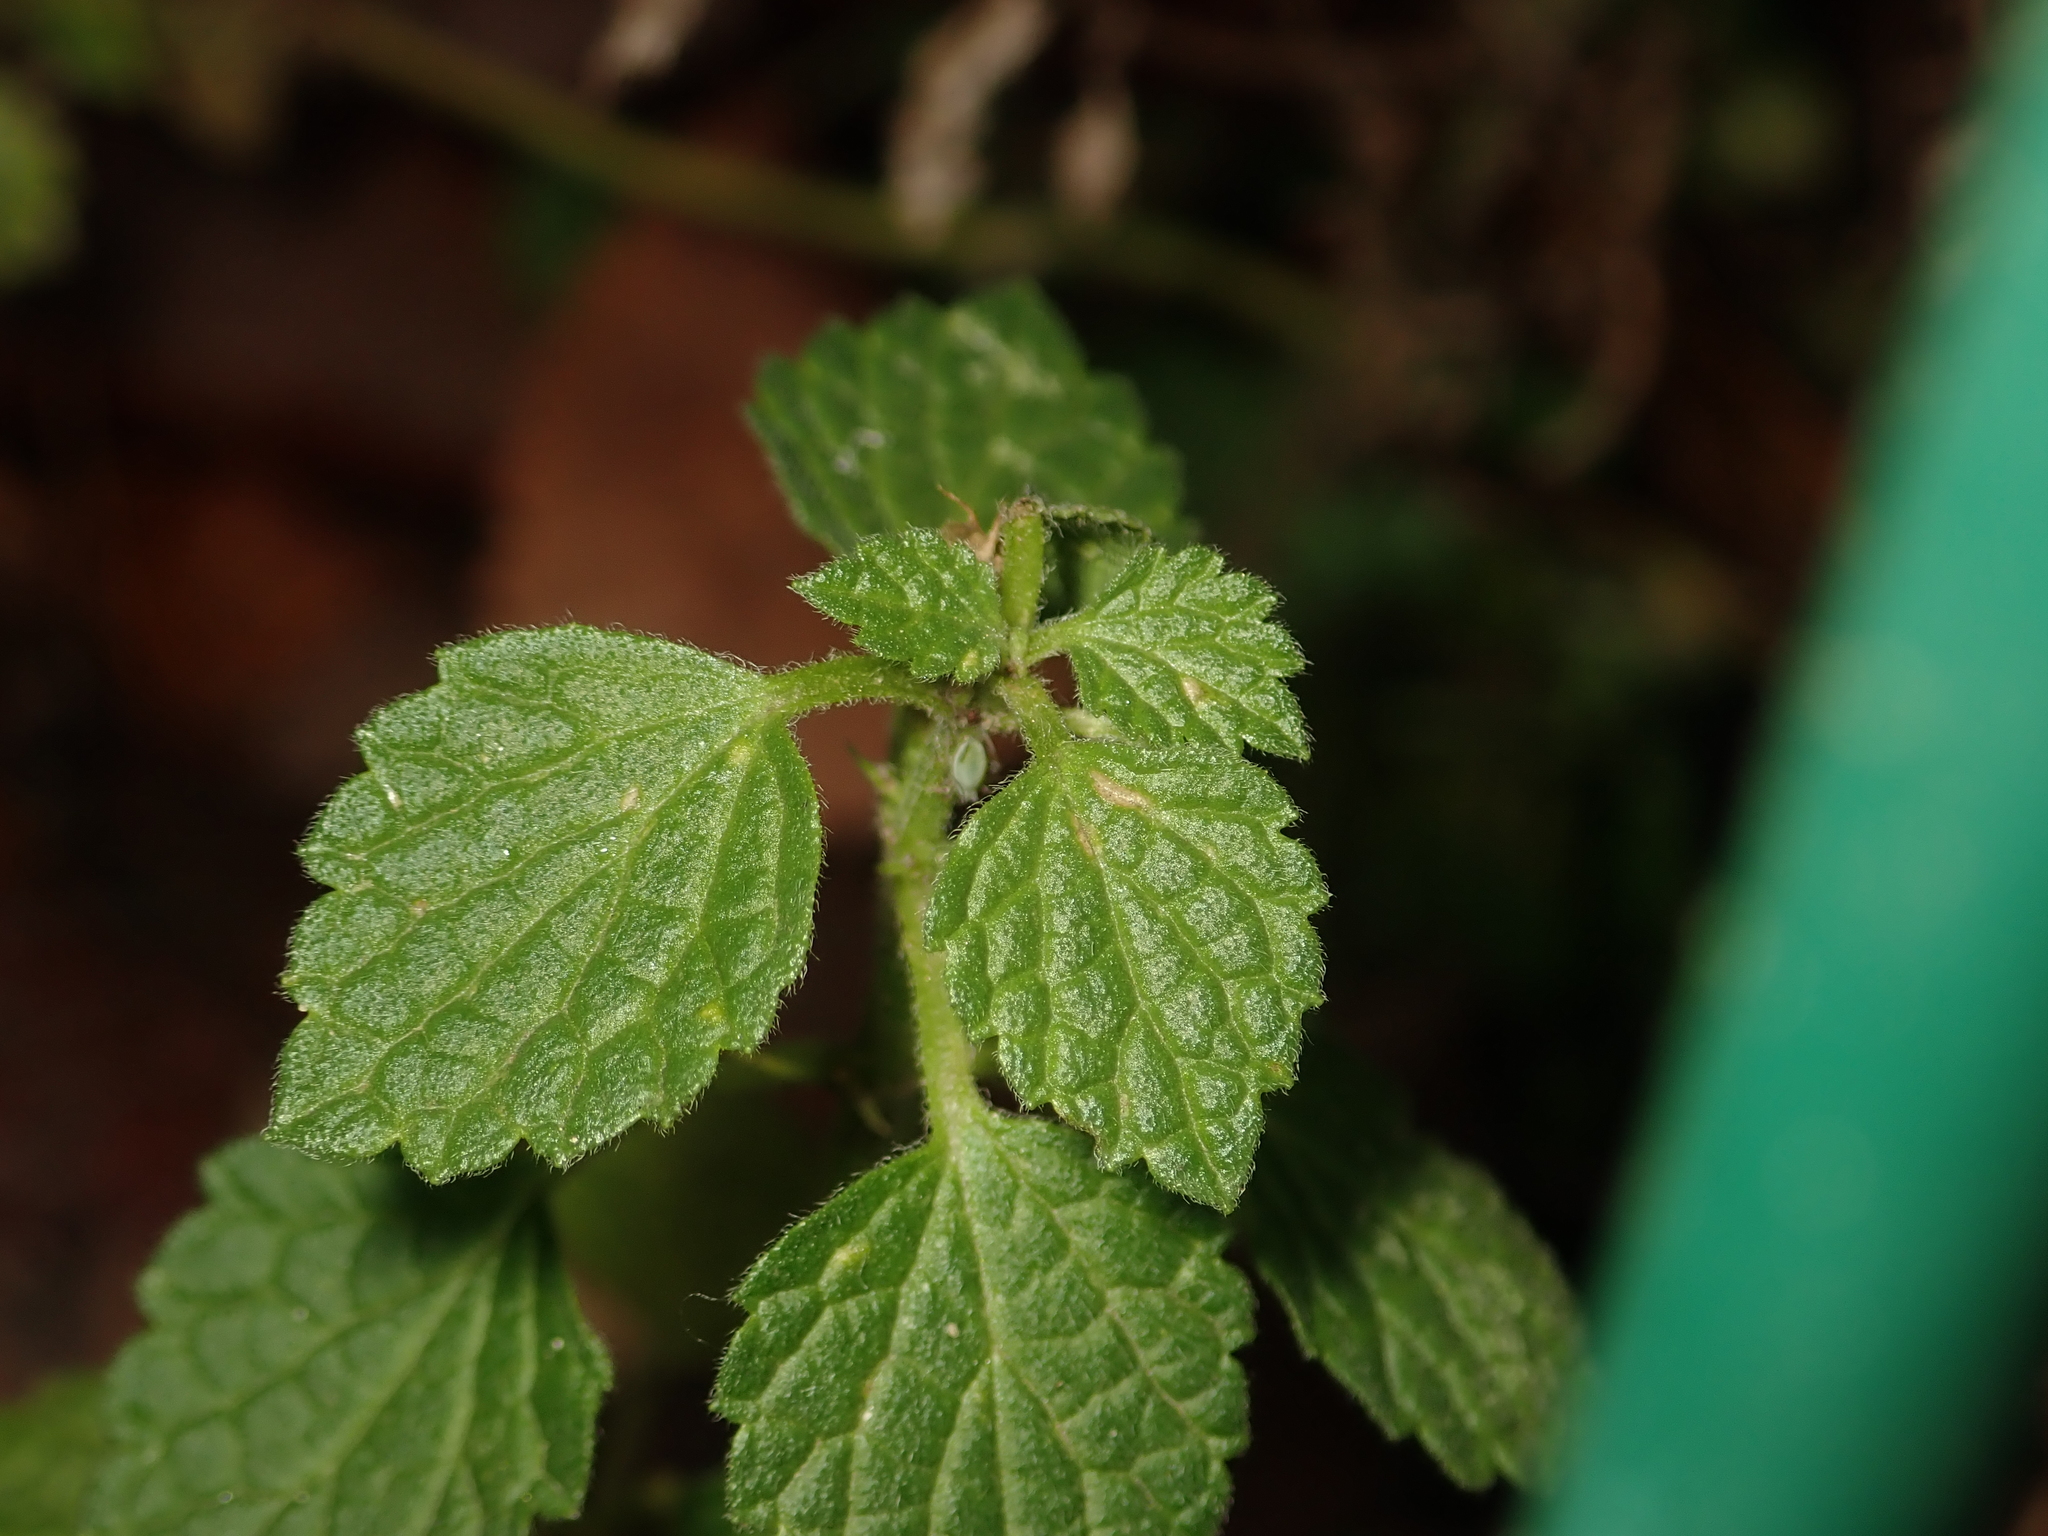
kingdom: Plantae
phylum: Tracheophyta
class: Magnoliopsida
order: Lamiales
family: Lamiaceae
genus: Ballota
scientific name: Ballota nigra
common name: Black horehound
